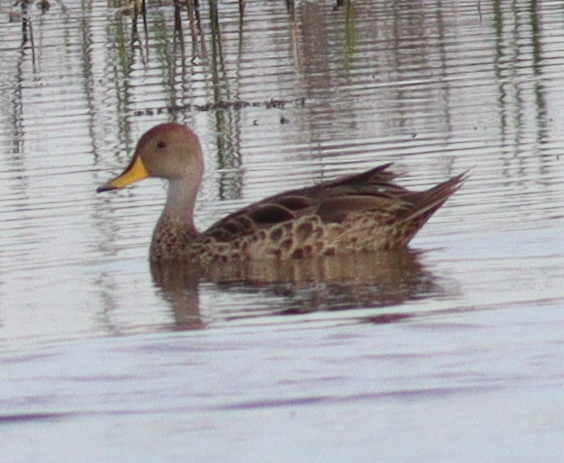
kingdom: Animalia
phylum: Chordata
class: Aves
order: Anseriformes
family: Anatidae
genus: Anas
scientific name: Anas georgica
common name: Yellow-billed pintail
